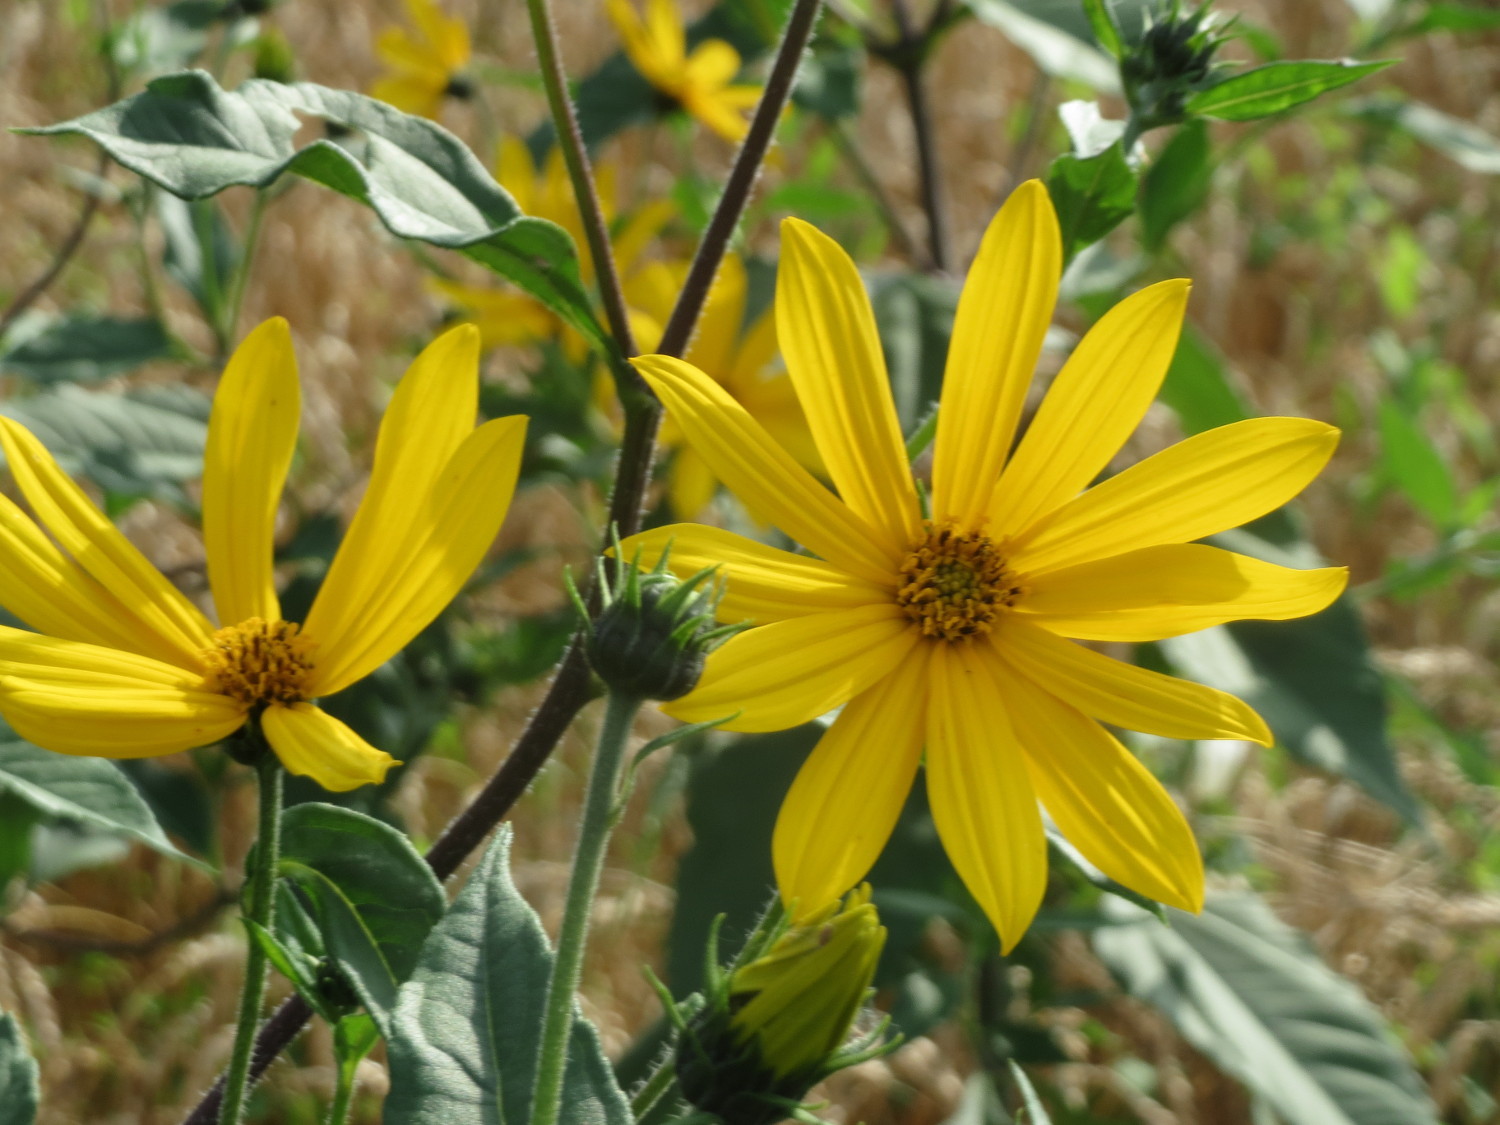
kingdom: Plantae
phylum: Tracheophyta
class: Magnoliopsida
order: Asterales
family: Asteraceae
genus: Helianthus
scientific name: Helianthus tuberosus
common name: Jerusalem artichoke
